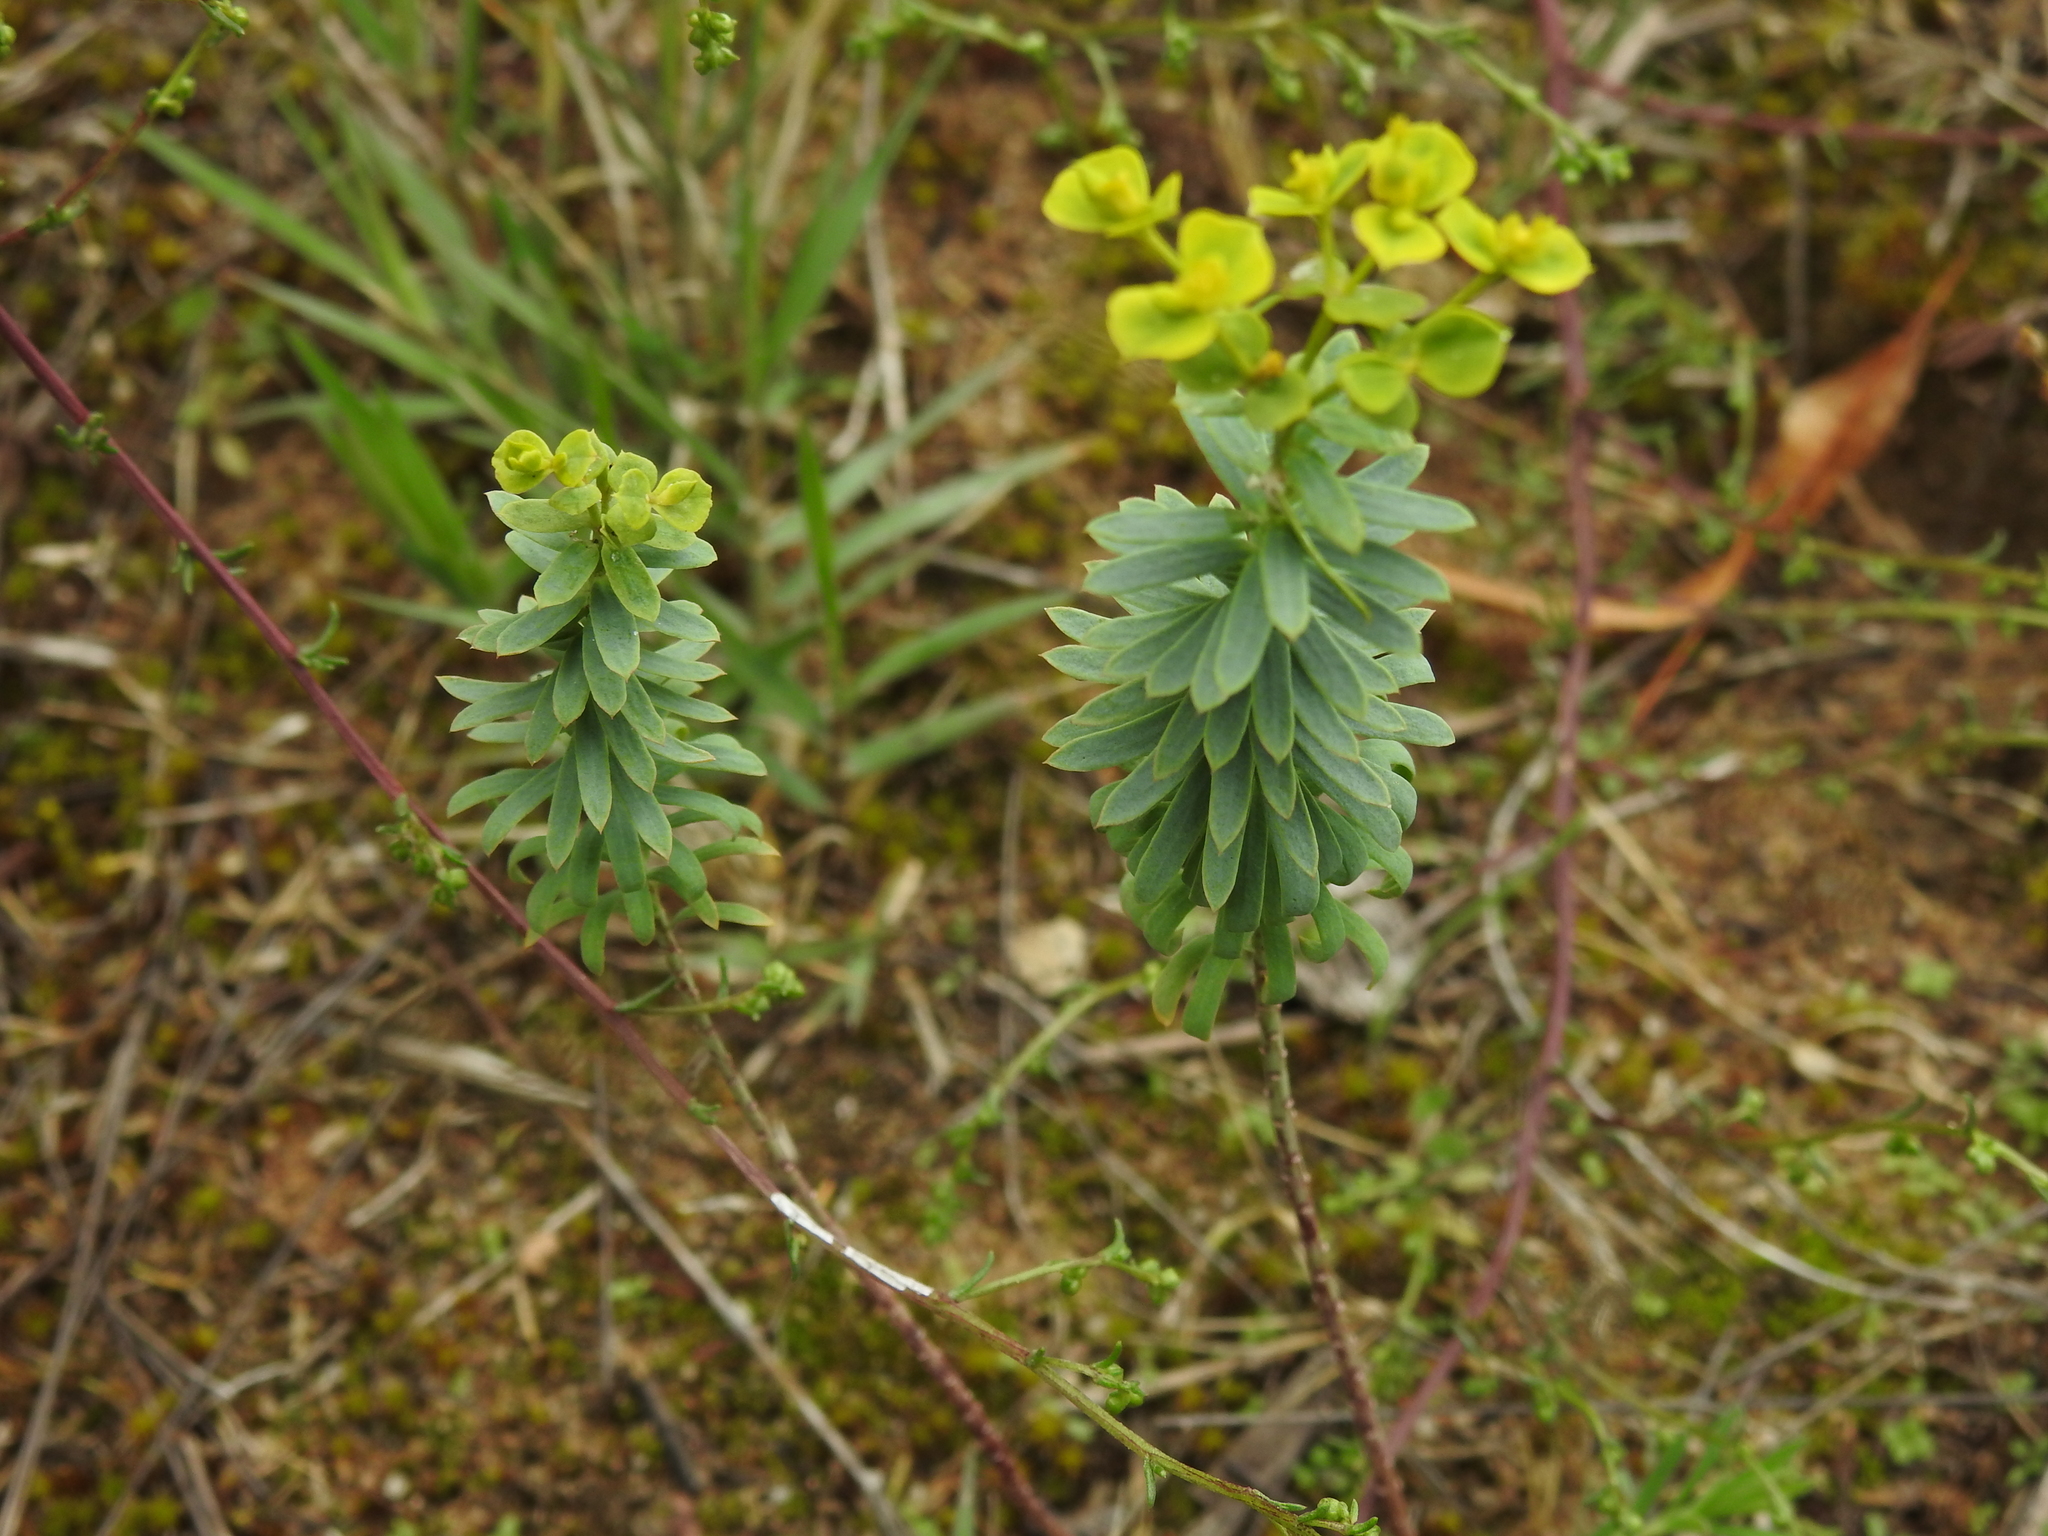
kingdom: Plantae
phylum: Tracheophyta
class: Magnoliopsida
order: Malpighiales
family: Euphorbiaceae
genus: Euphorbia
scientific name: Euphorbia seguieriana
